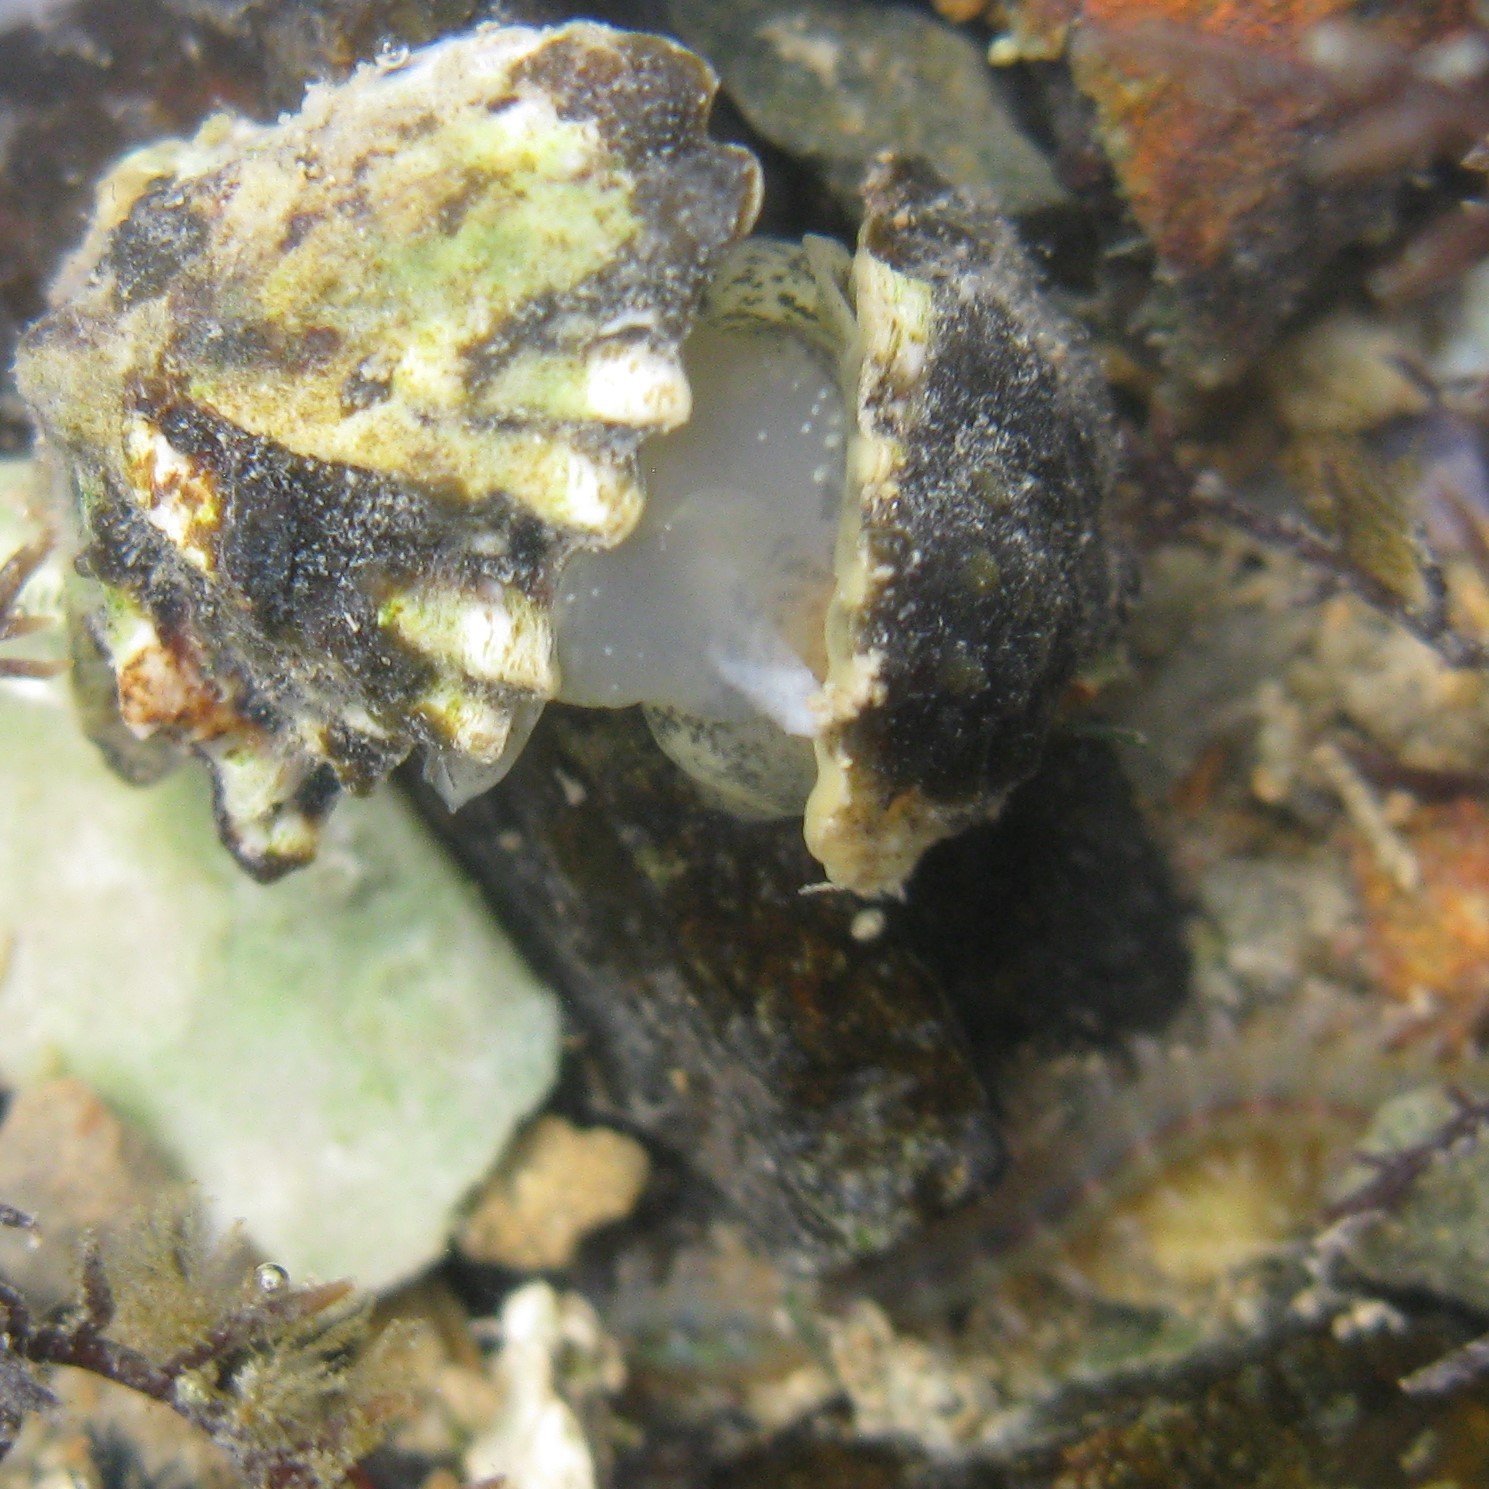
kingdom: Animalia
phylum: Mollusca
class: Gastropoda
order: Siphonariida
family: Siphonariidae
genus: Siphonaria
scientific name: Siphonaria australis
